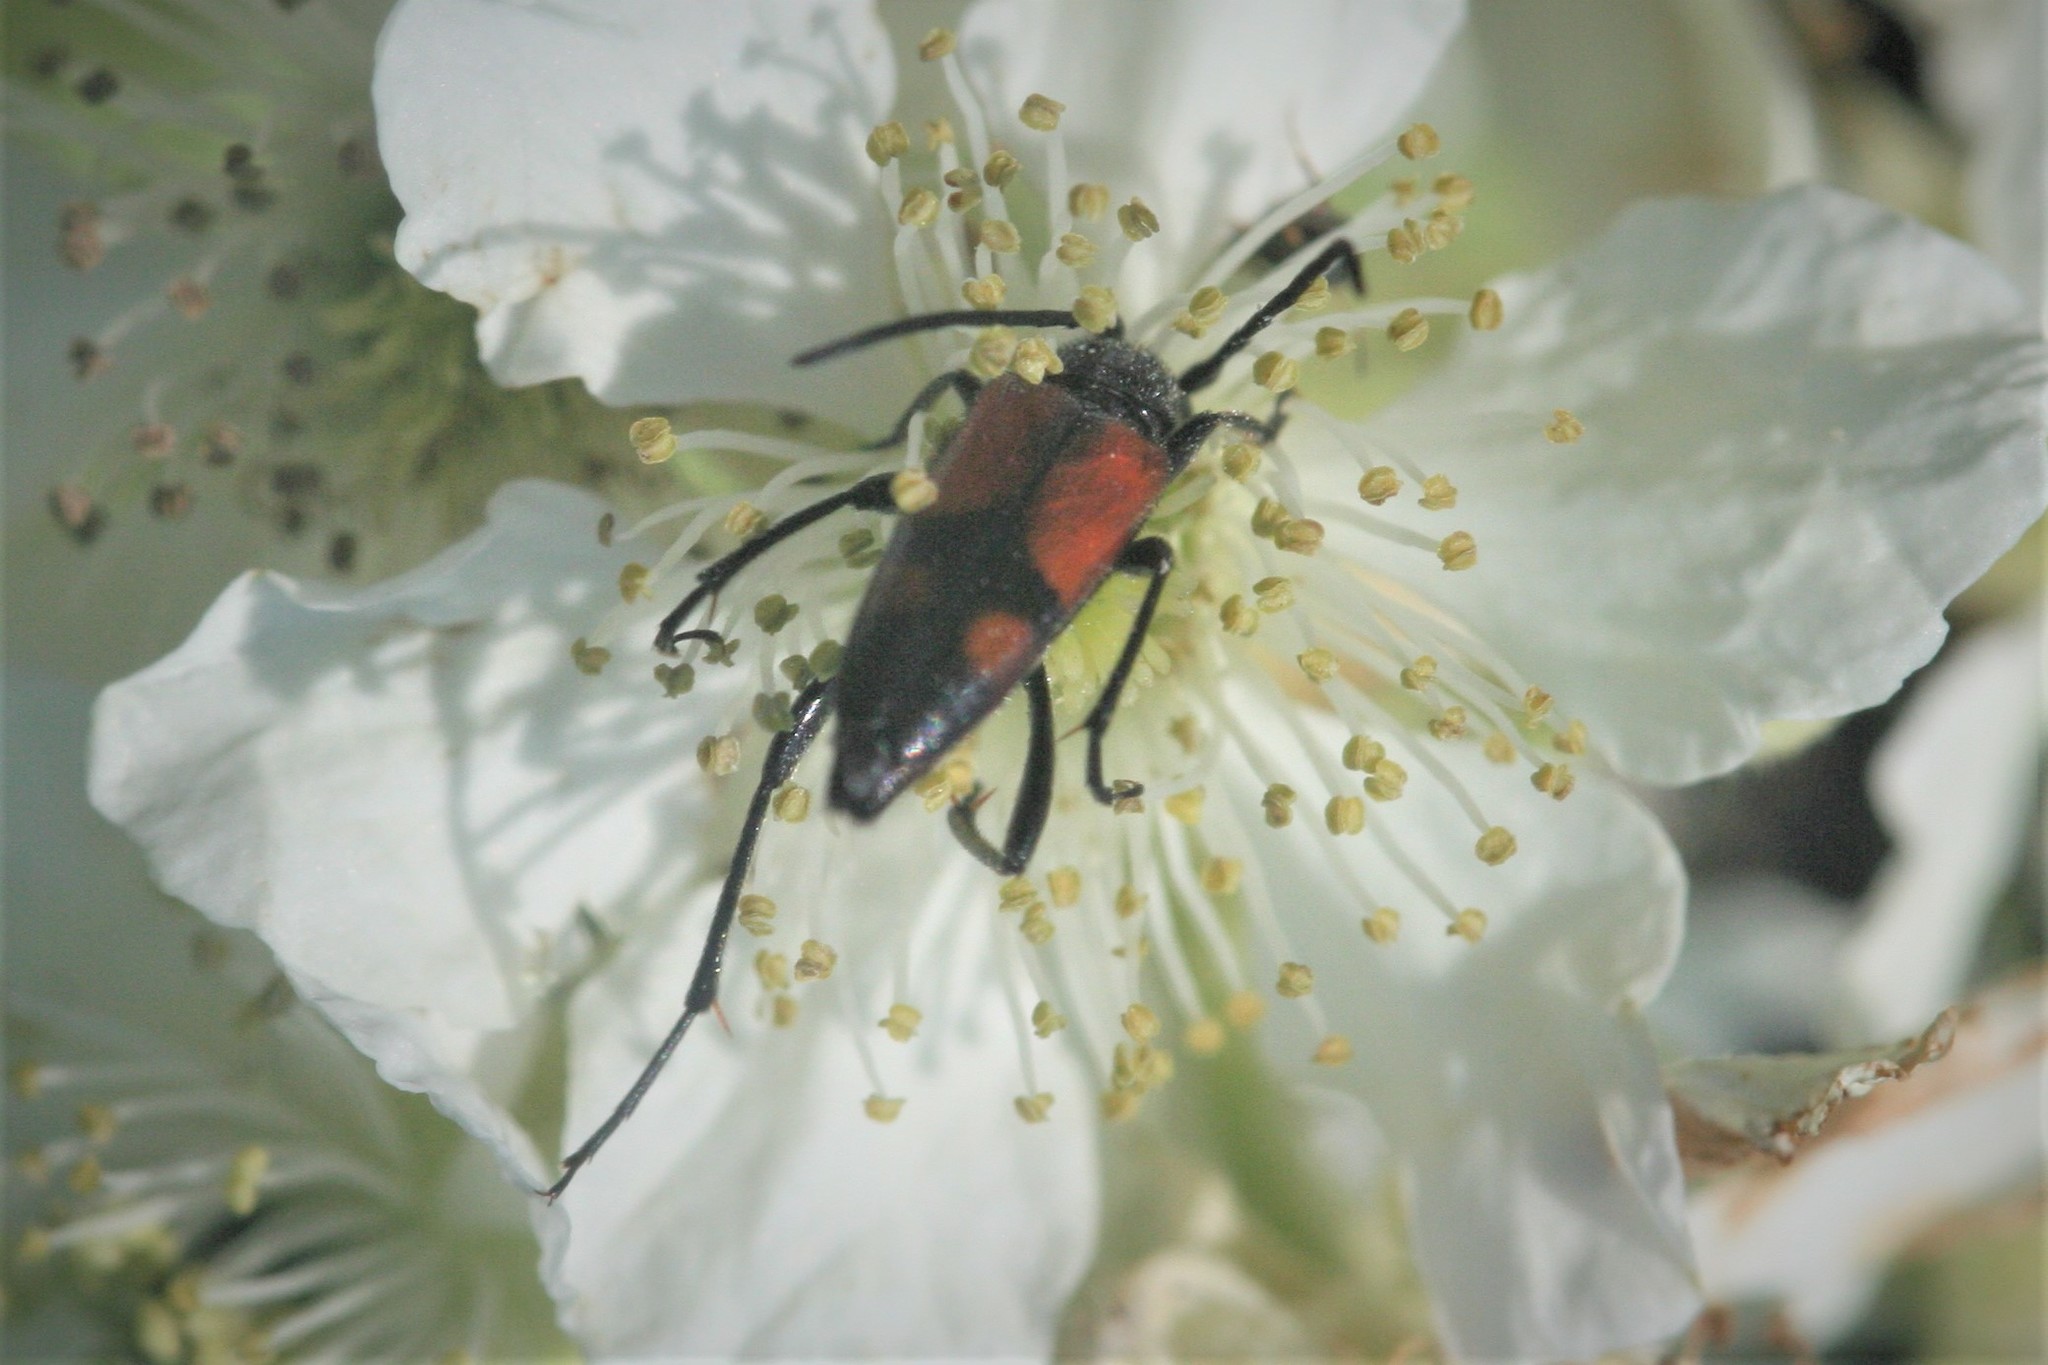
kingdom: Animalia
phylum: Arthropoda
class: Insecta
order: Coleoptera
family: Cerambycidae
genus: Stenurella
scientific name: Stenurella bifasciata
